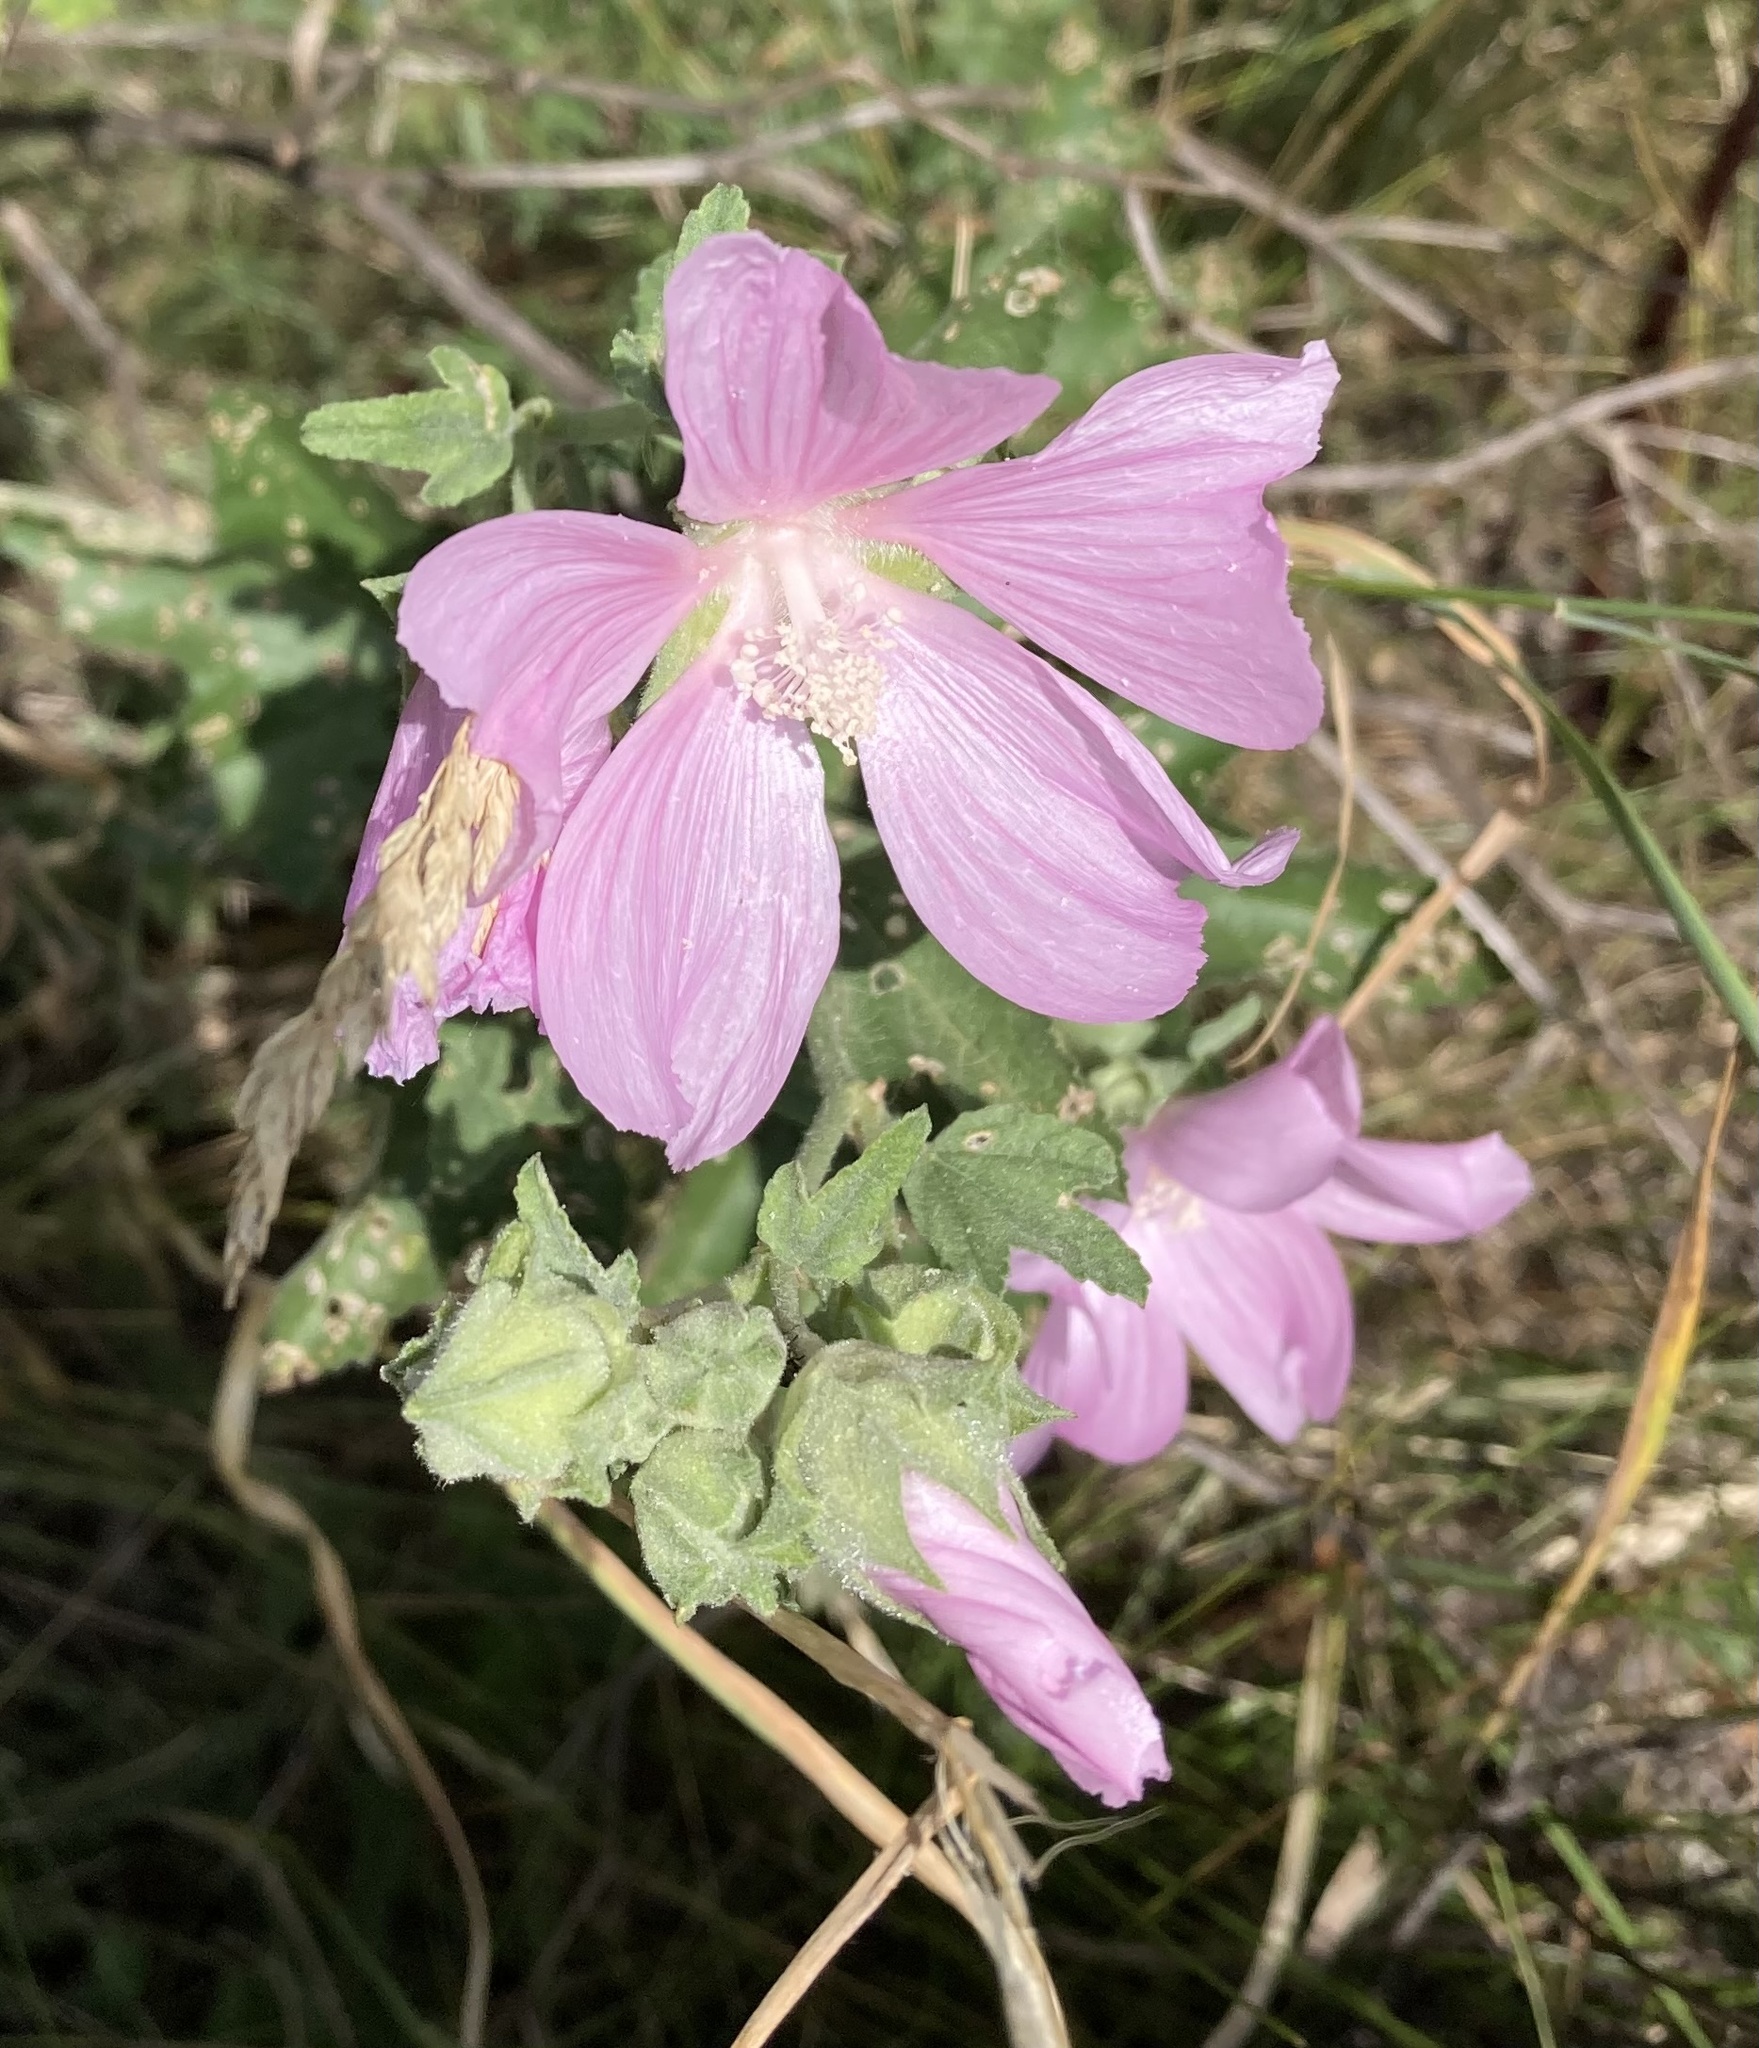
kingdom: Plantae
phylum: Tracheophyta
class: Magnoliopsida
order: Malvales
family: Malvaceae
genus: Malva
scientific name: Malva thuringiaca
